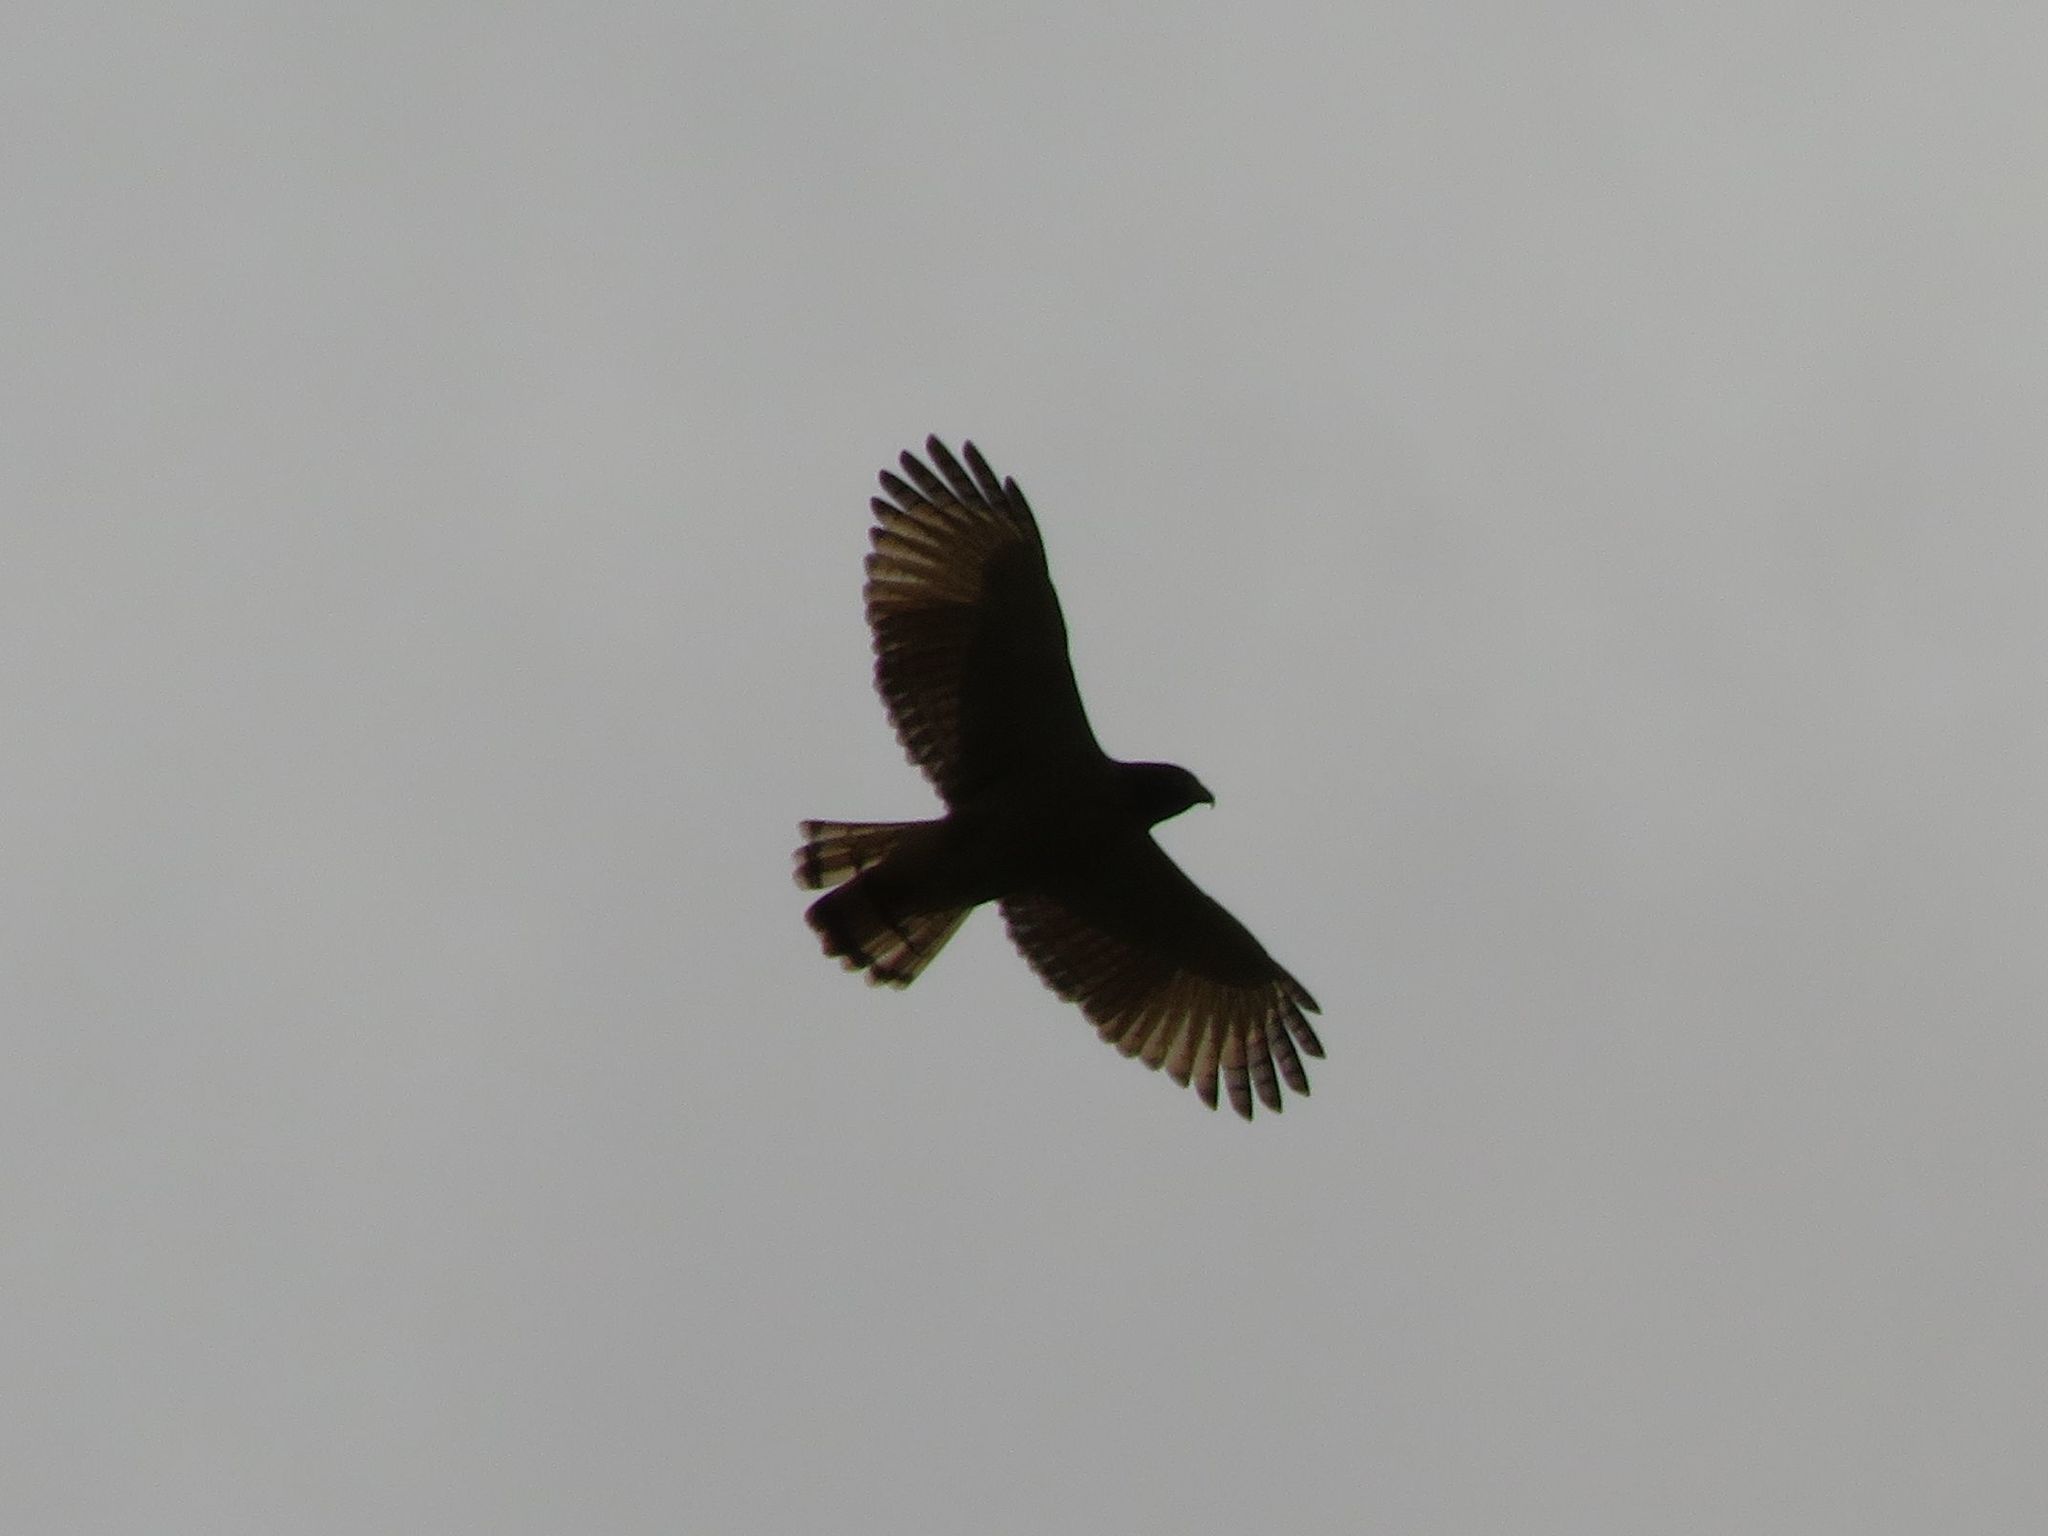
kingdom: Animalia
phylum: Chordata
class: Aves
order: Accipitriformes
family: Accipitridae
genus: Rupornis
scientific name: Rupornis magnirostris
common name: Roadside hawk
